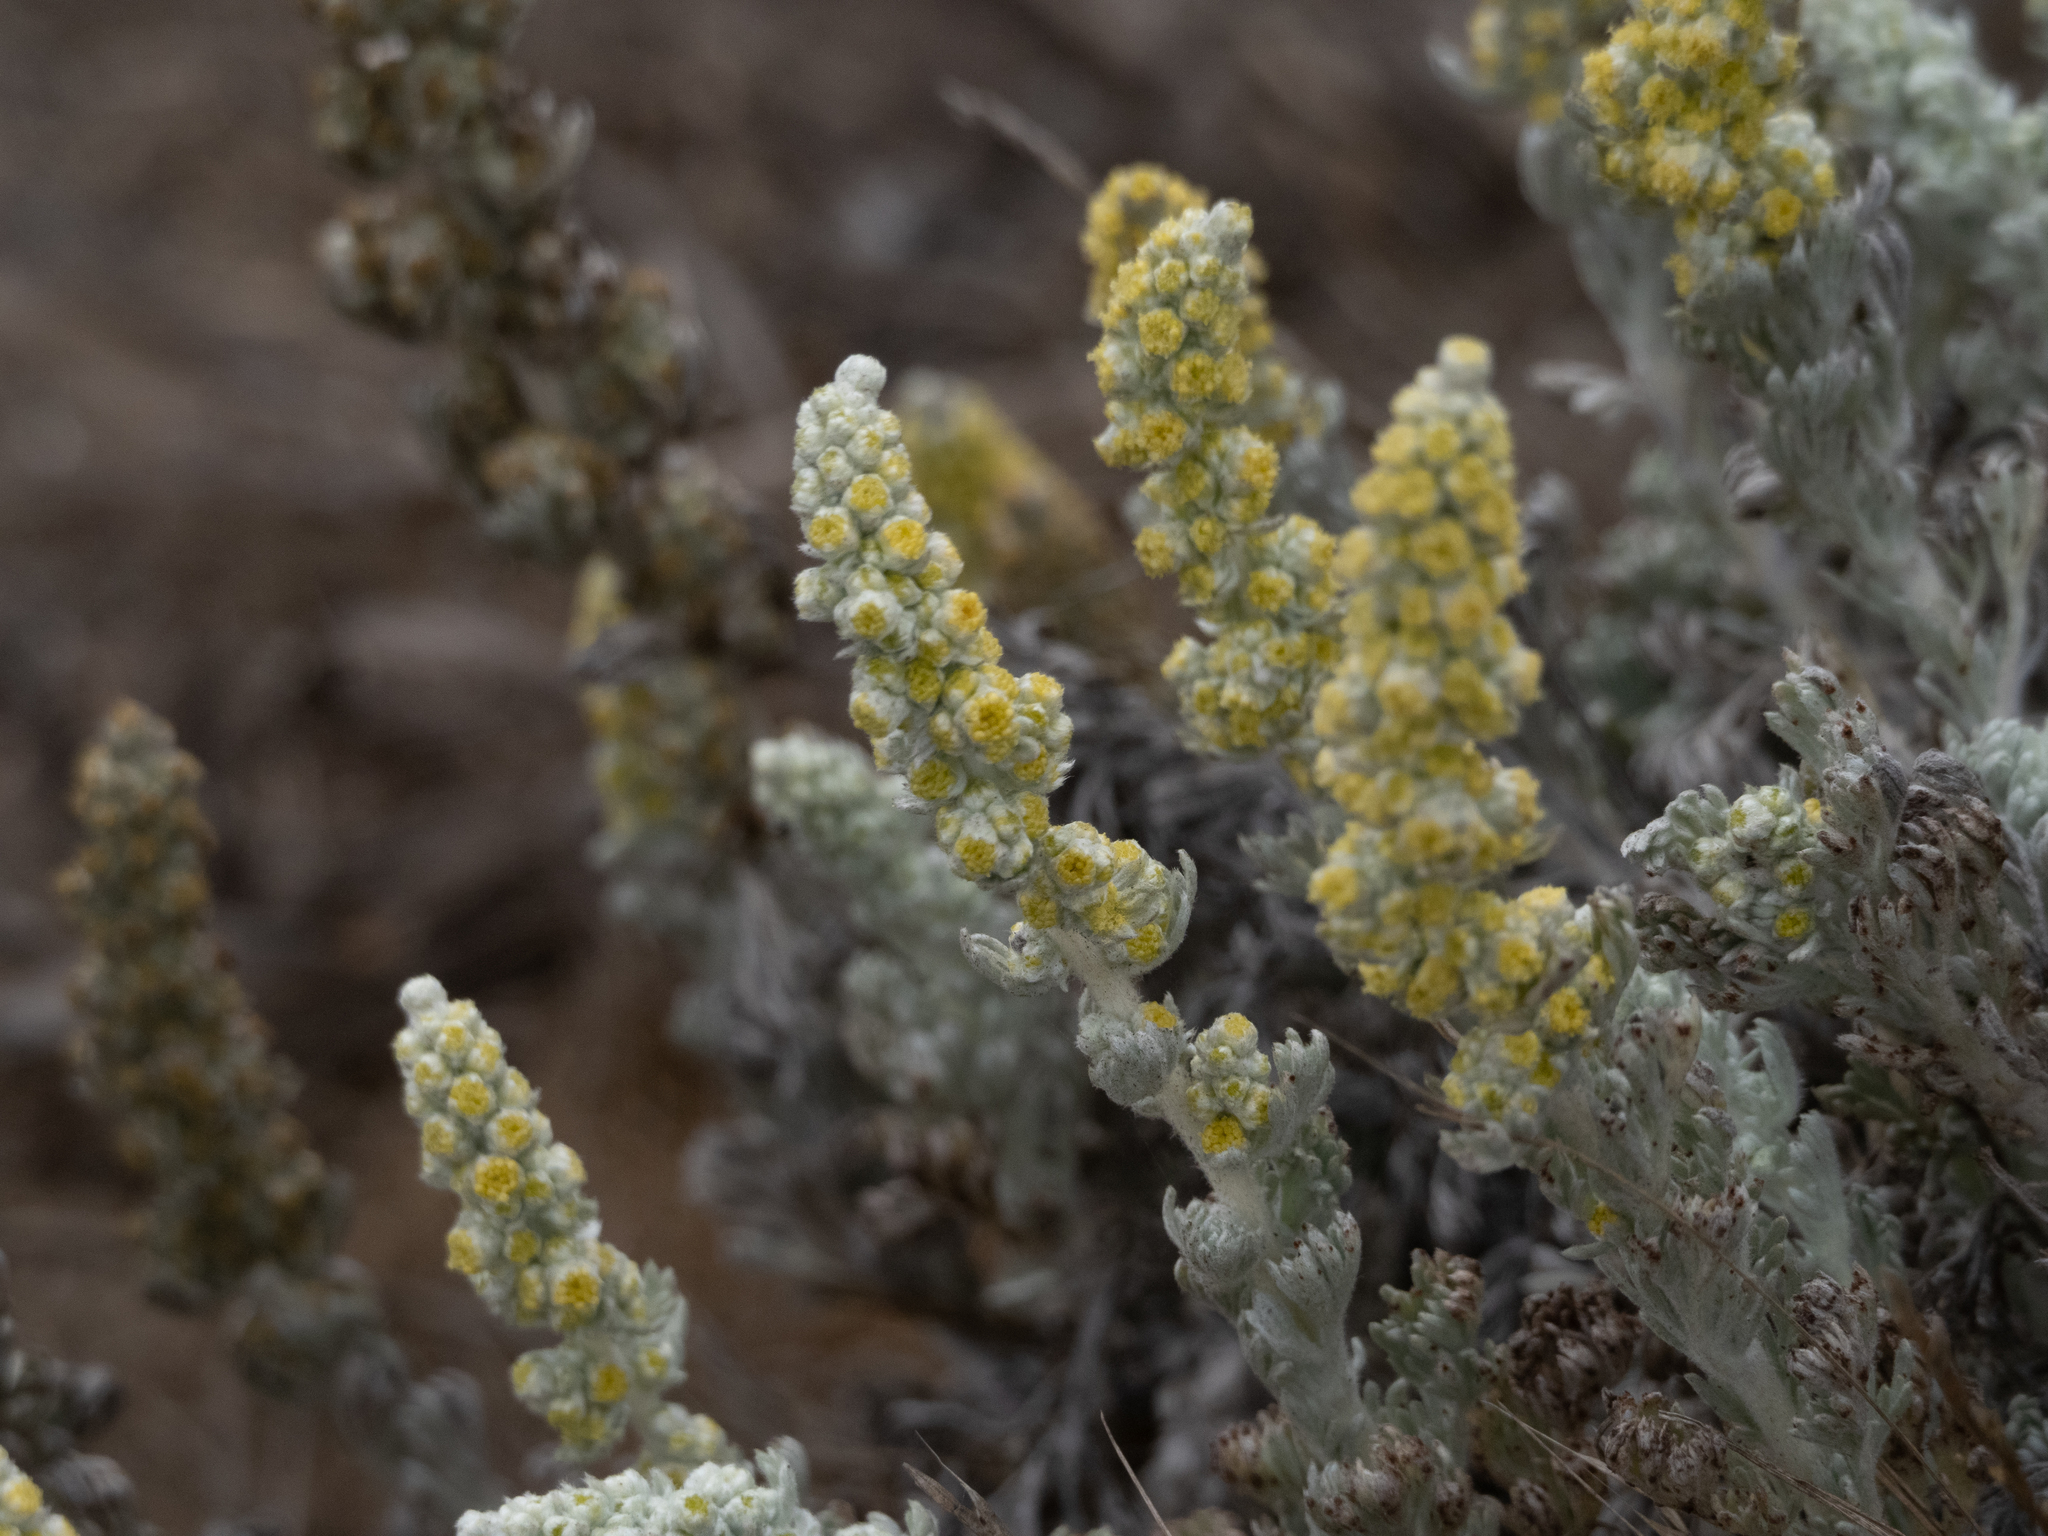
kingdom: Plantae
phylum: Tracheophyta
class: Magnoliopsida
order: Asterales
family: Asteraceae
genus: Artemisia
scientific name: Artemisia pycnocephala
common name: Coastal sagewort
